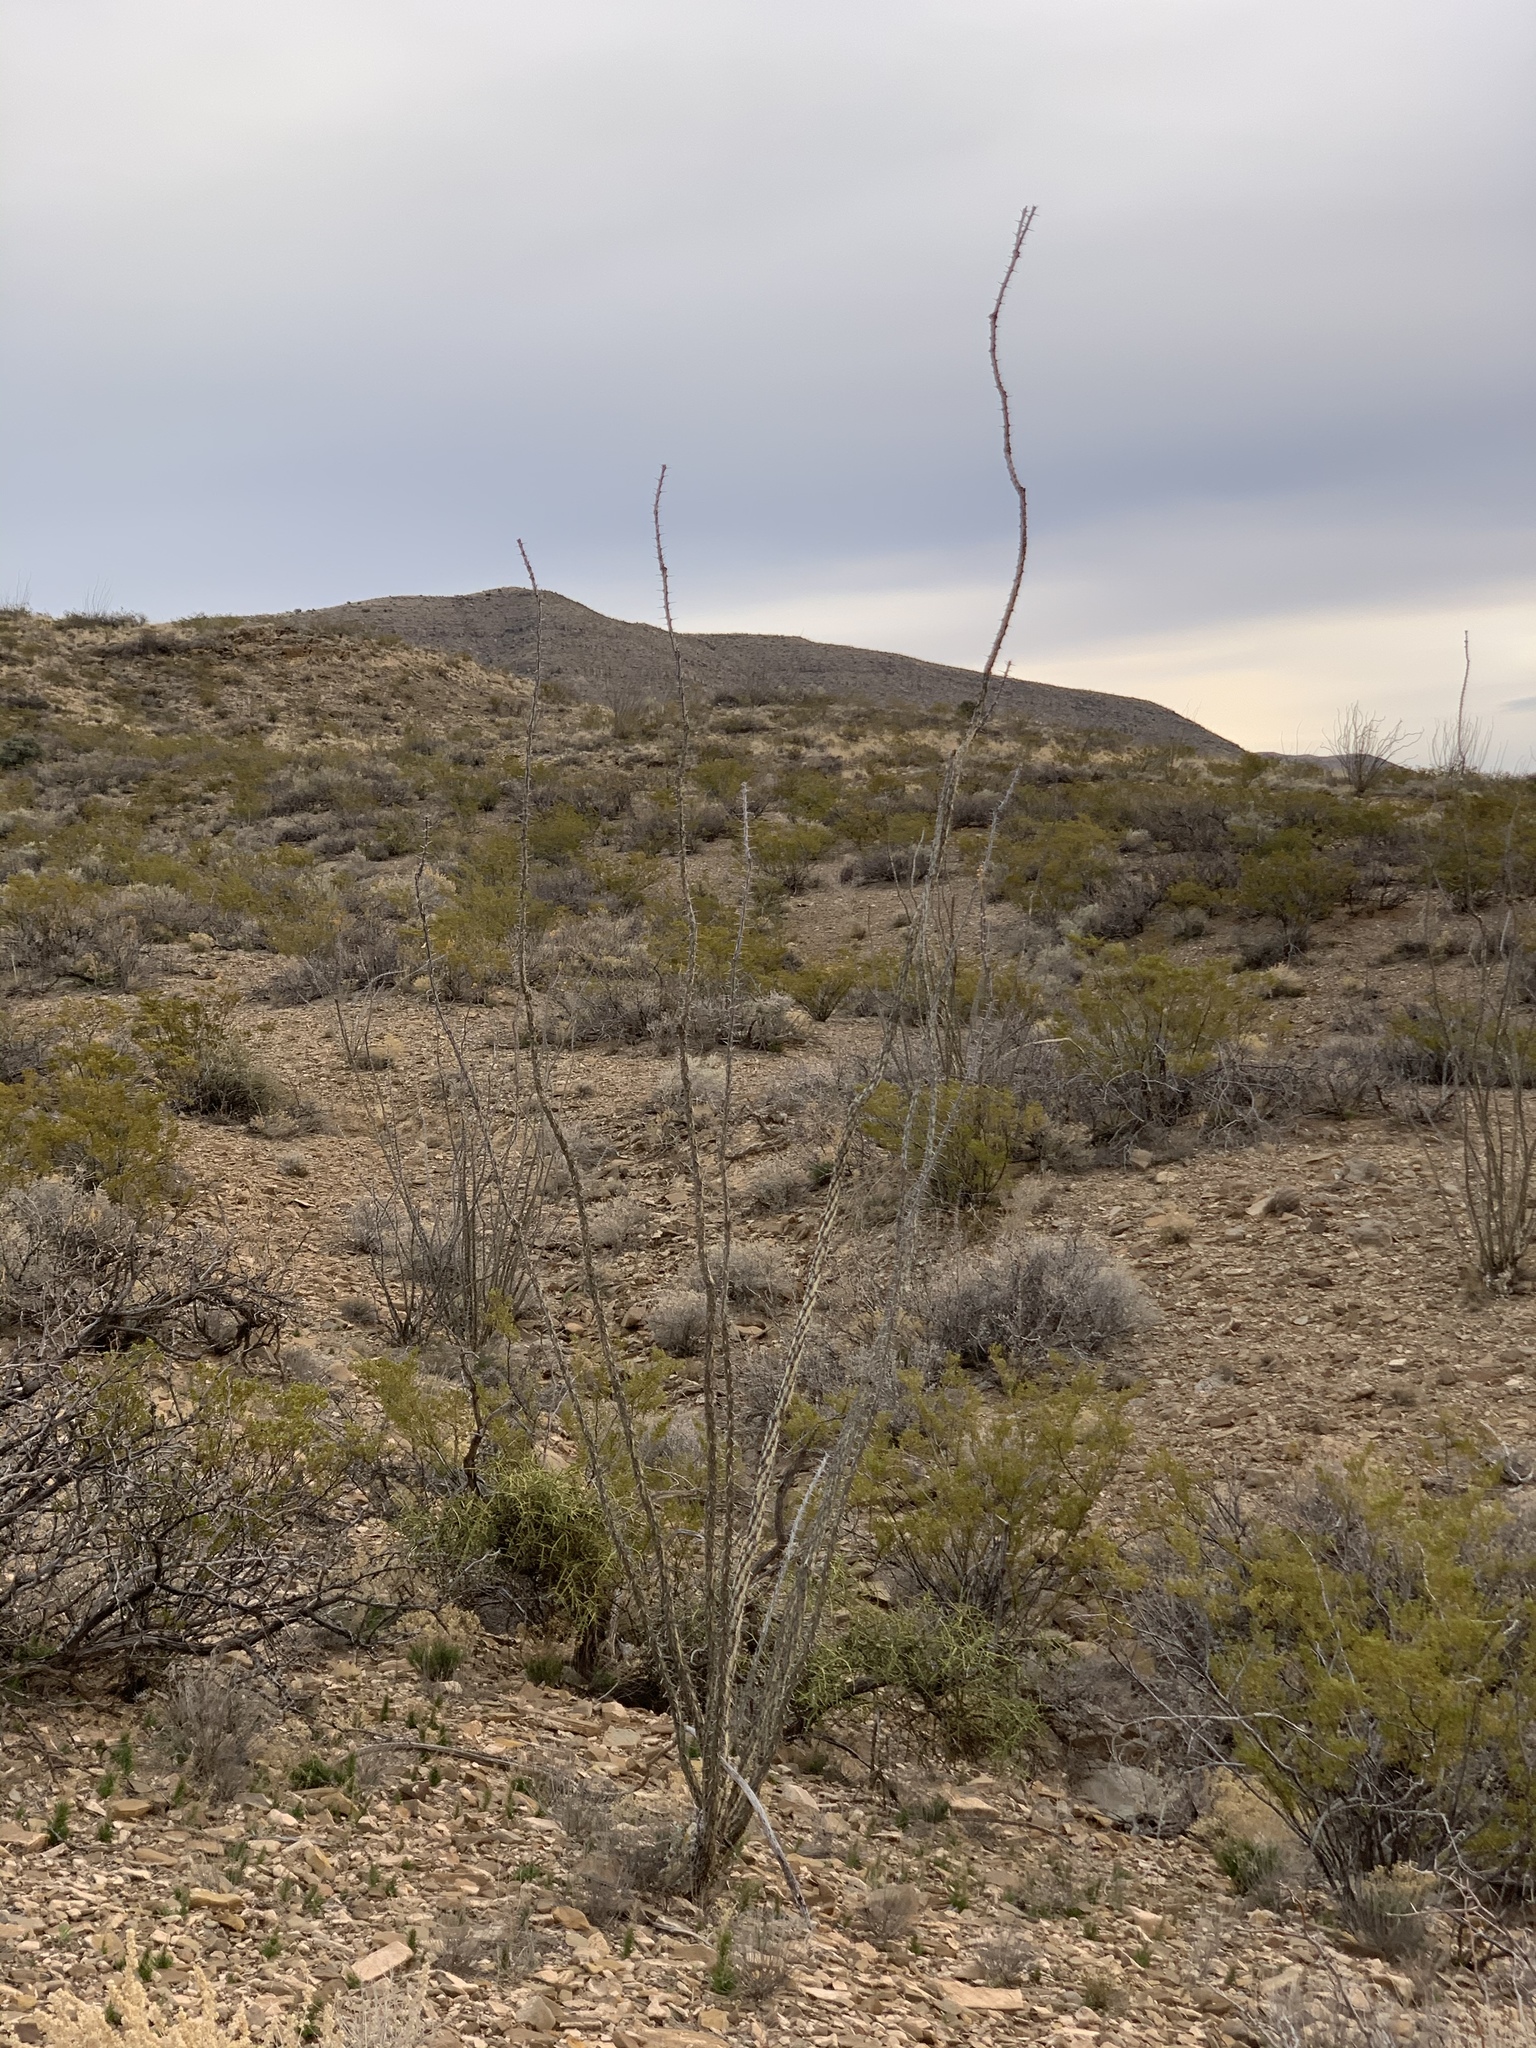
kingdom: Plantae
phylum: Tracheophyta
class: Magnoliopsida
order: Ericales
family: Fouquieriaceae
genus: Fouquieria
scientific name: Fouquieria splendens
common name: Vine-cactus
